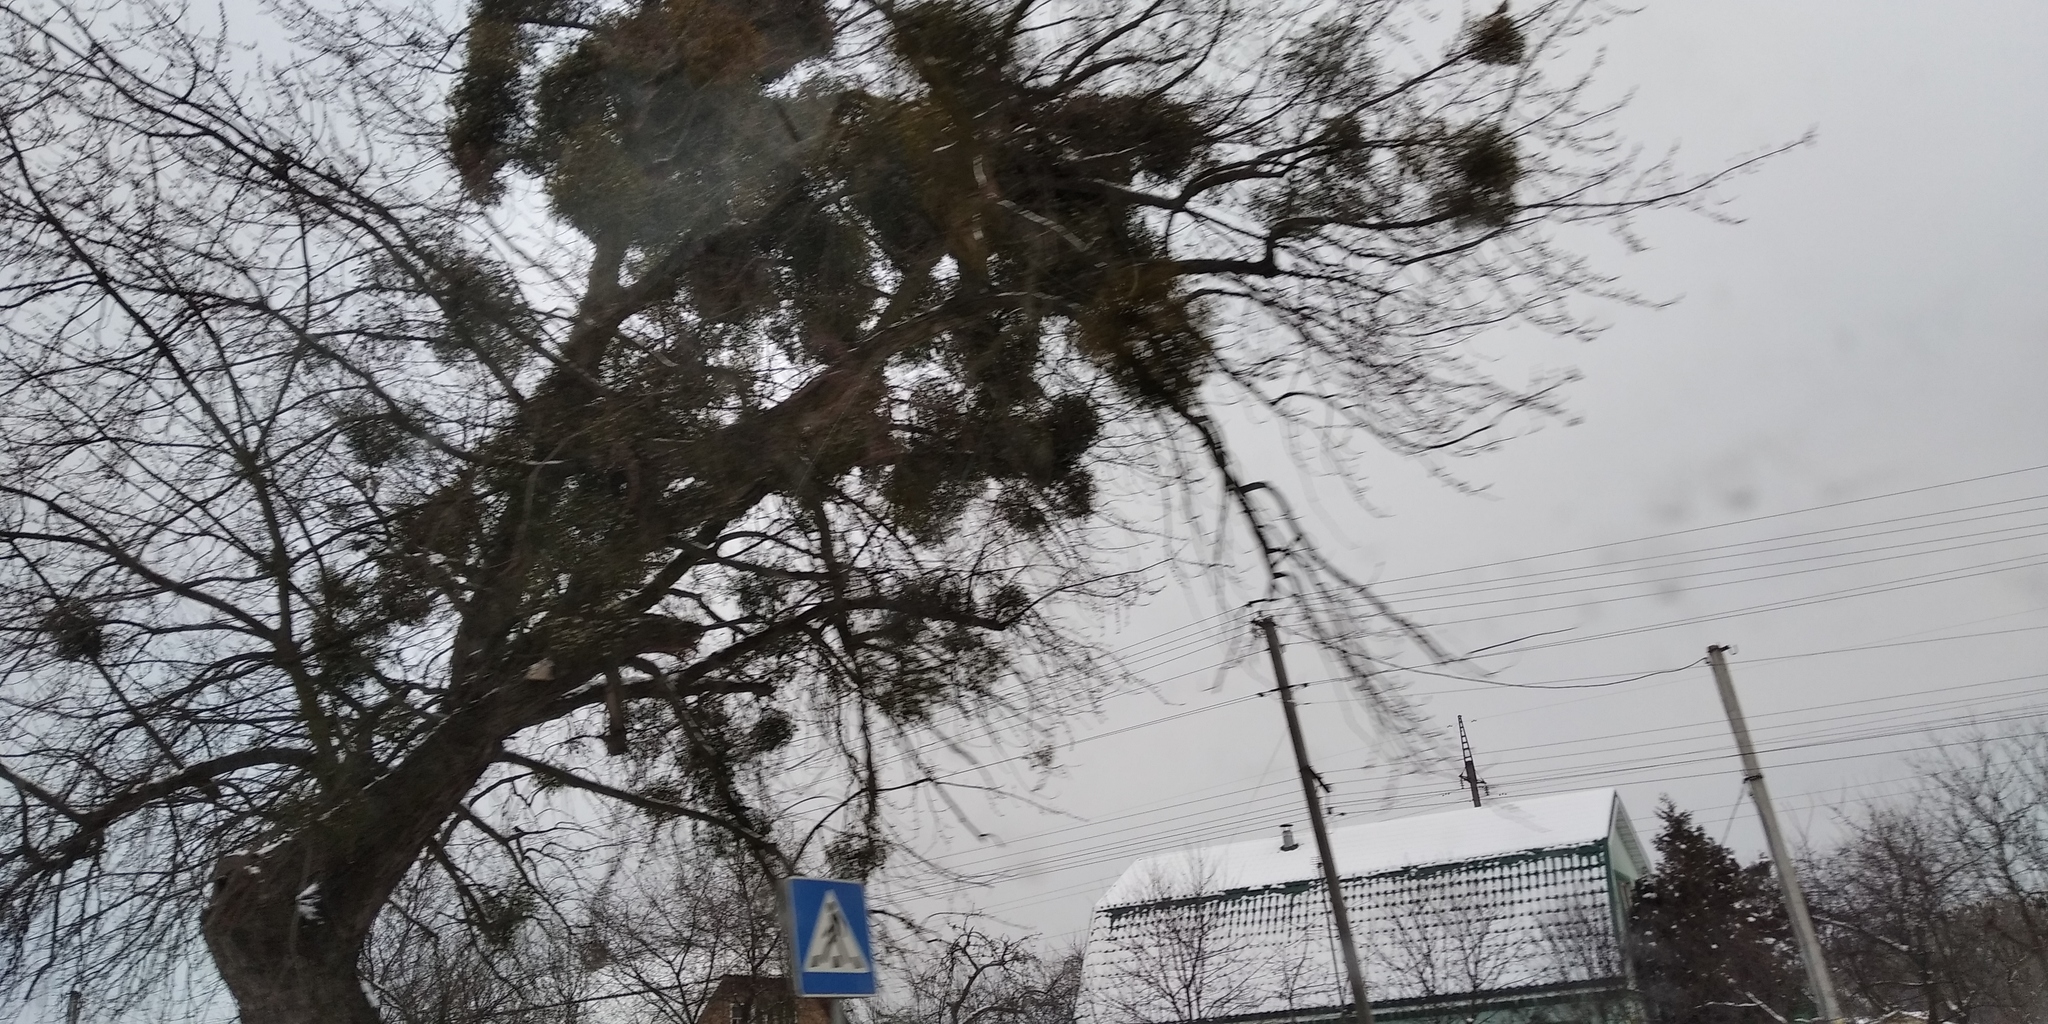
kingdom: Plantae
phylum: Tracheophyta
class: Magnoliopsida
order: Santalales
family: Viscaceae
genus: Viscum
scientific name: Viscum album
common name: Mistletoe
